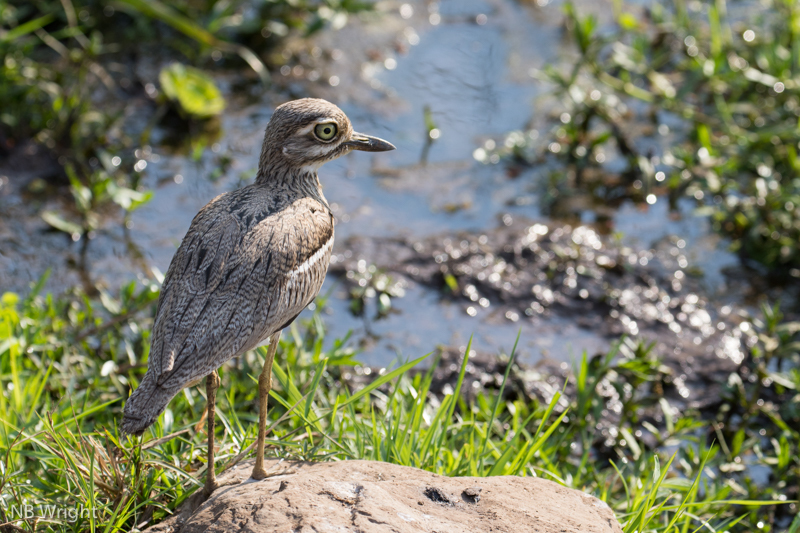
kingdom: Animalia
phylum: Chordata
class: Aves
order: Charadriiformes
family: Burhinidae
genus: Burhinus
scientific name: Burhinus vermiculatus
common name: Water thick-knee
